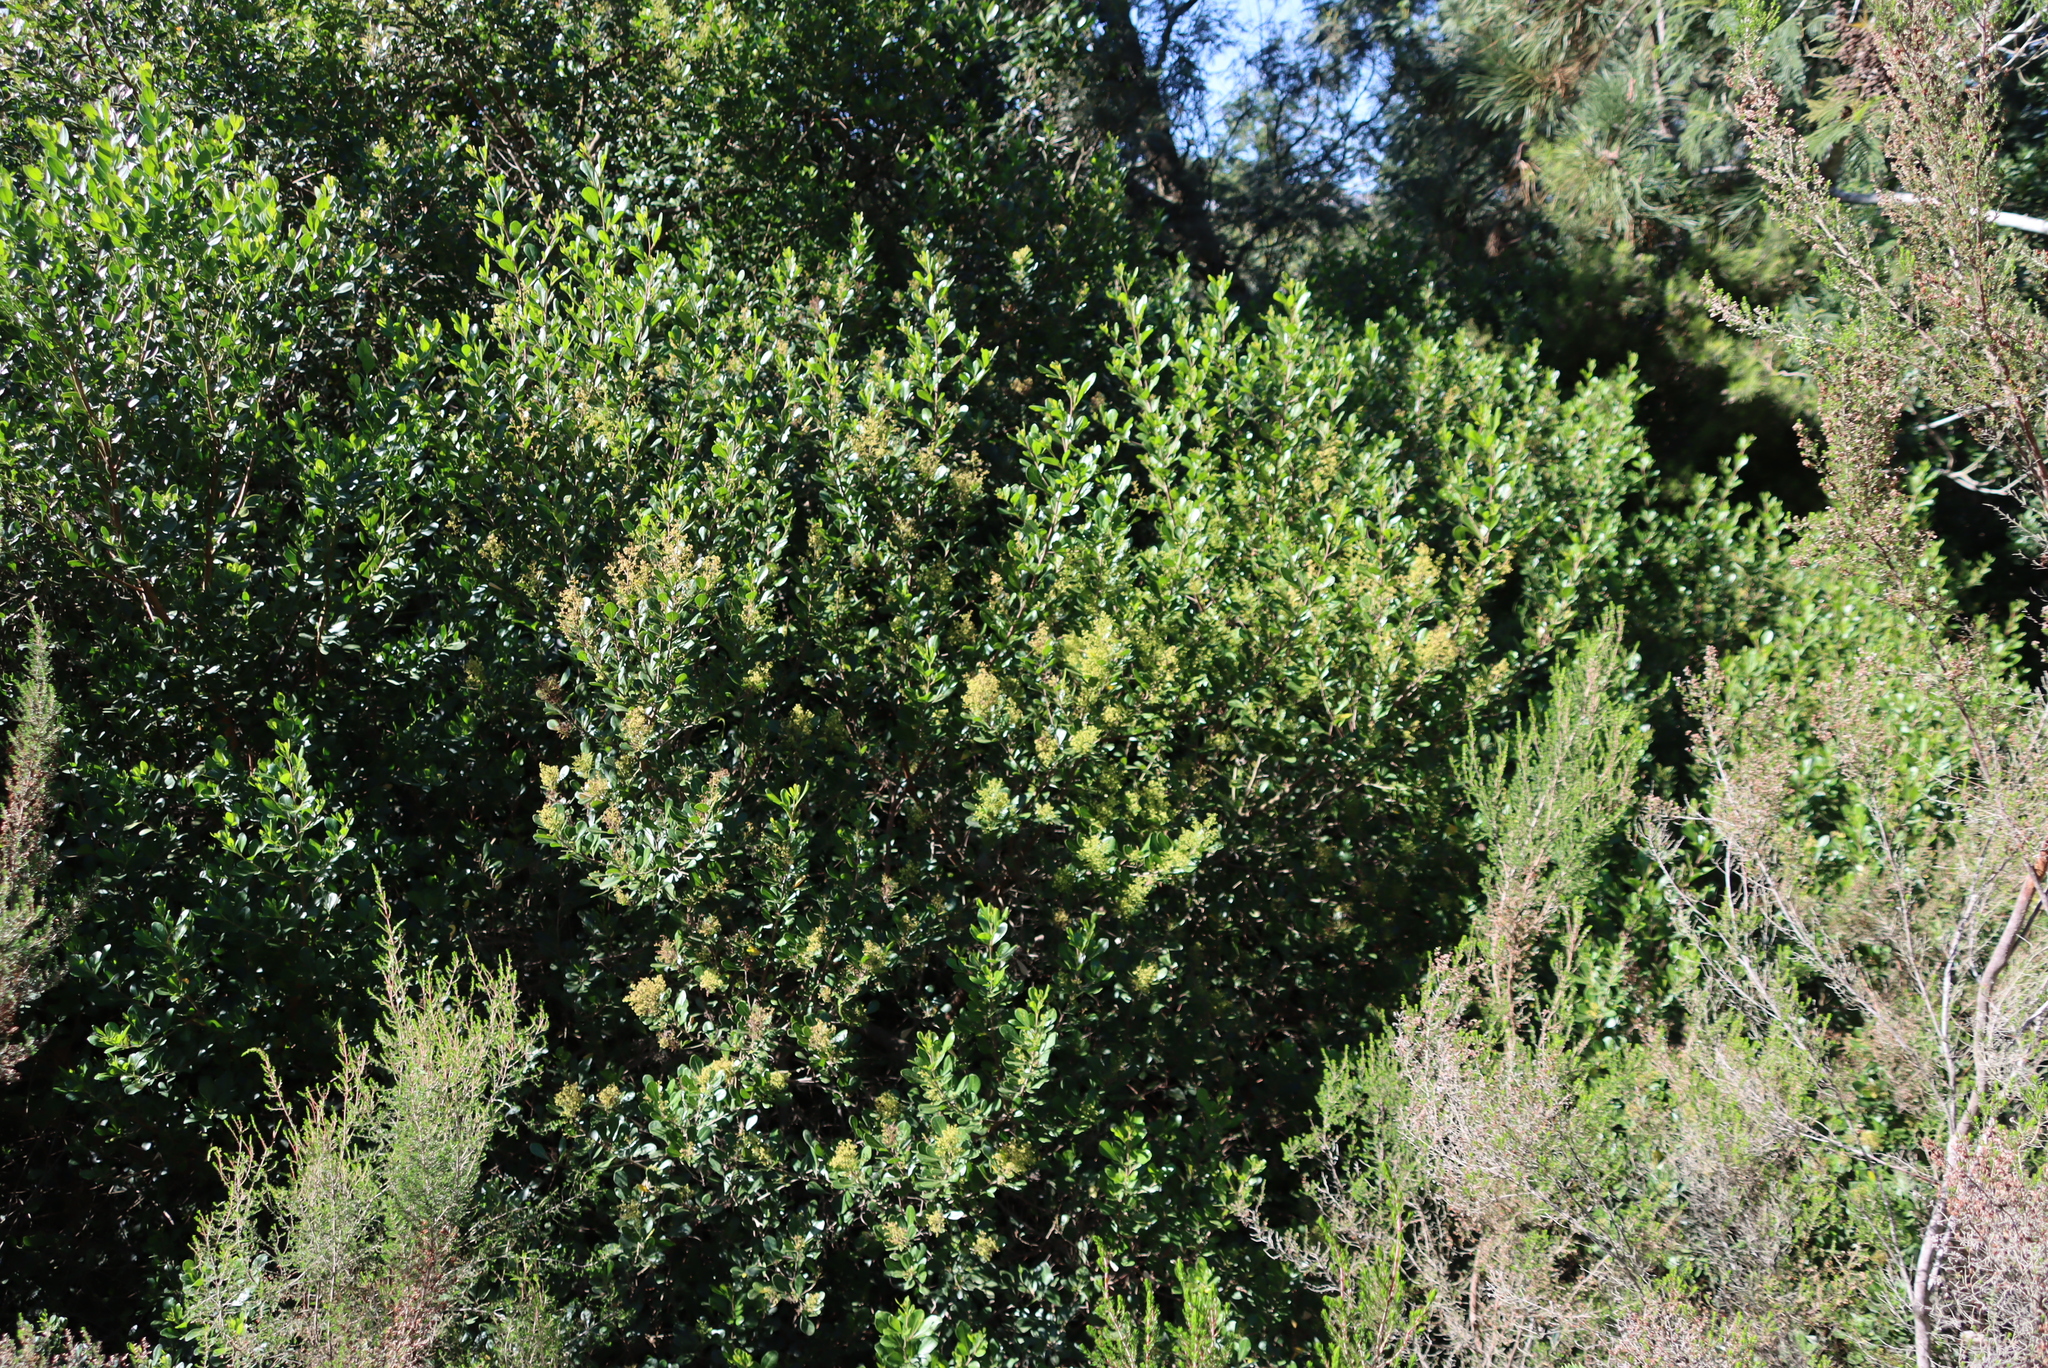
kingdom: Plantae
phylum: Tracheophyta
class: Magnoliopsida
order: Sapindales
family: Anacardiaceae
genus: Searsia
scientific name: Searsia lucida
